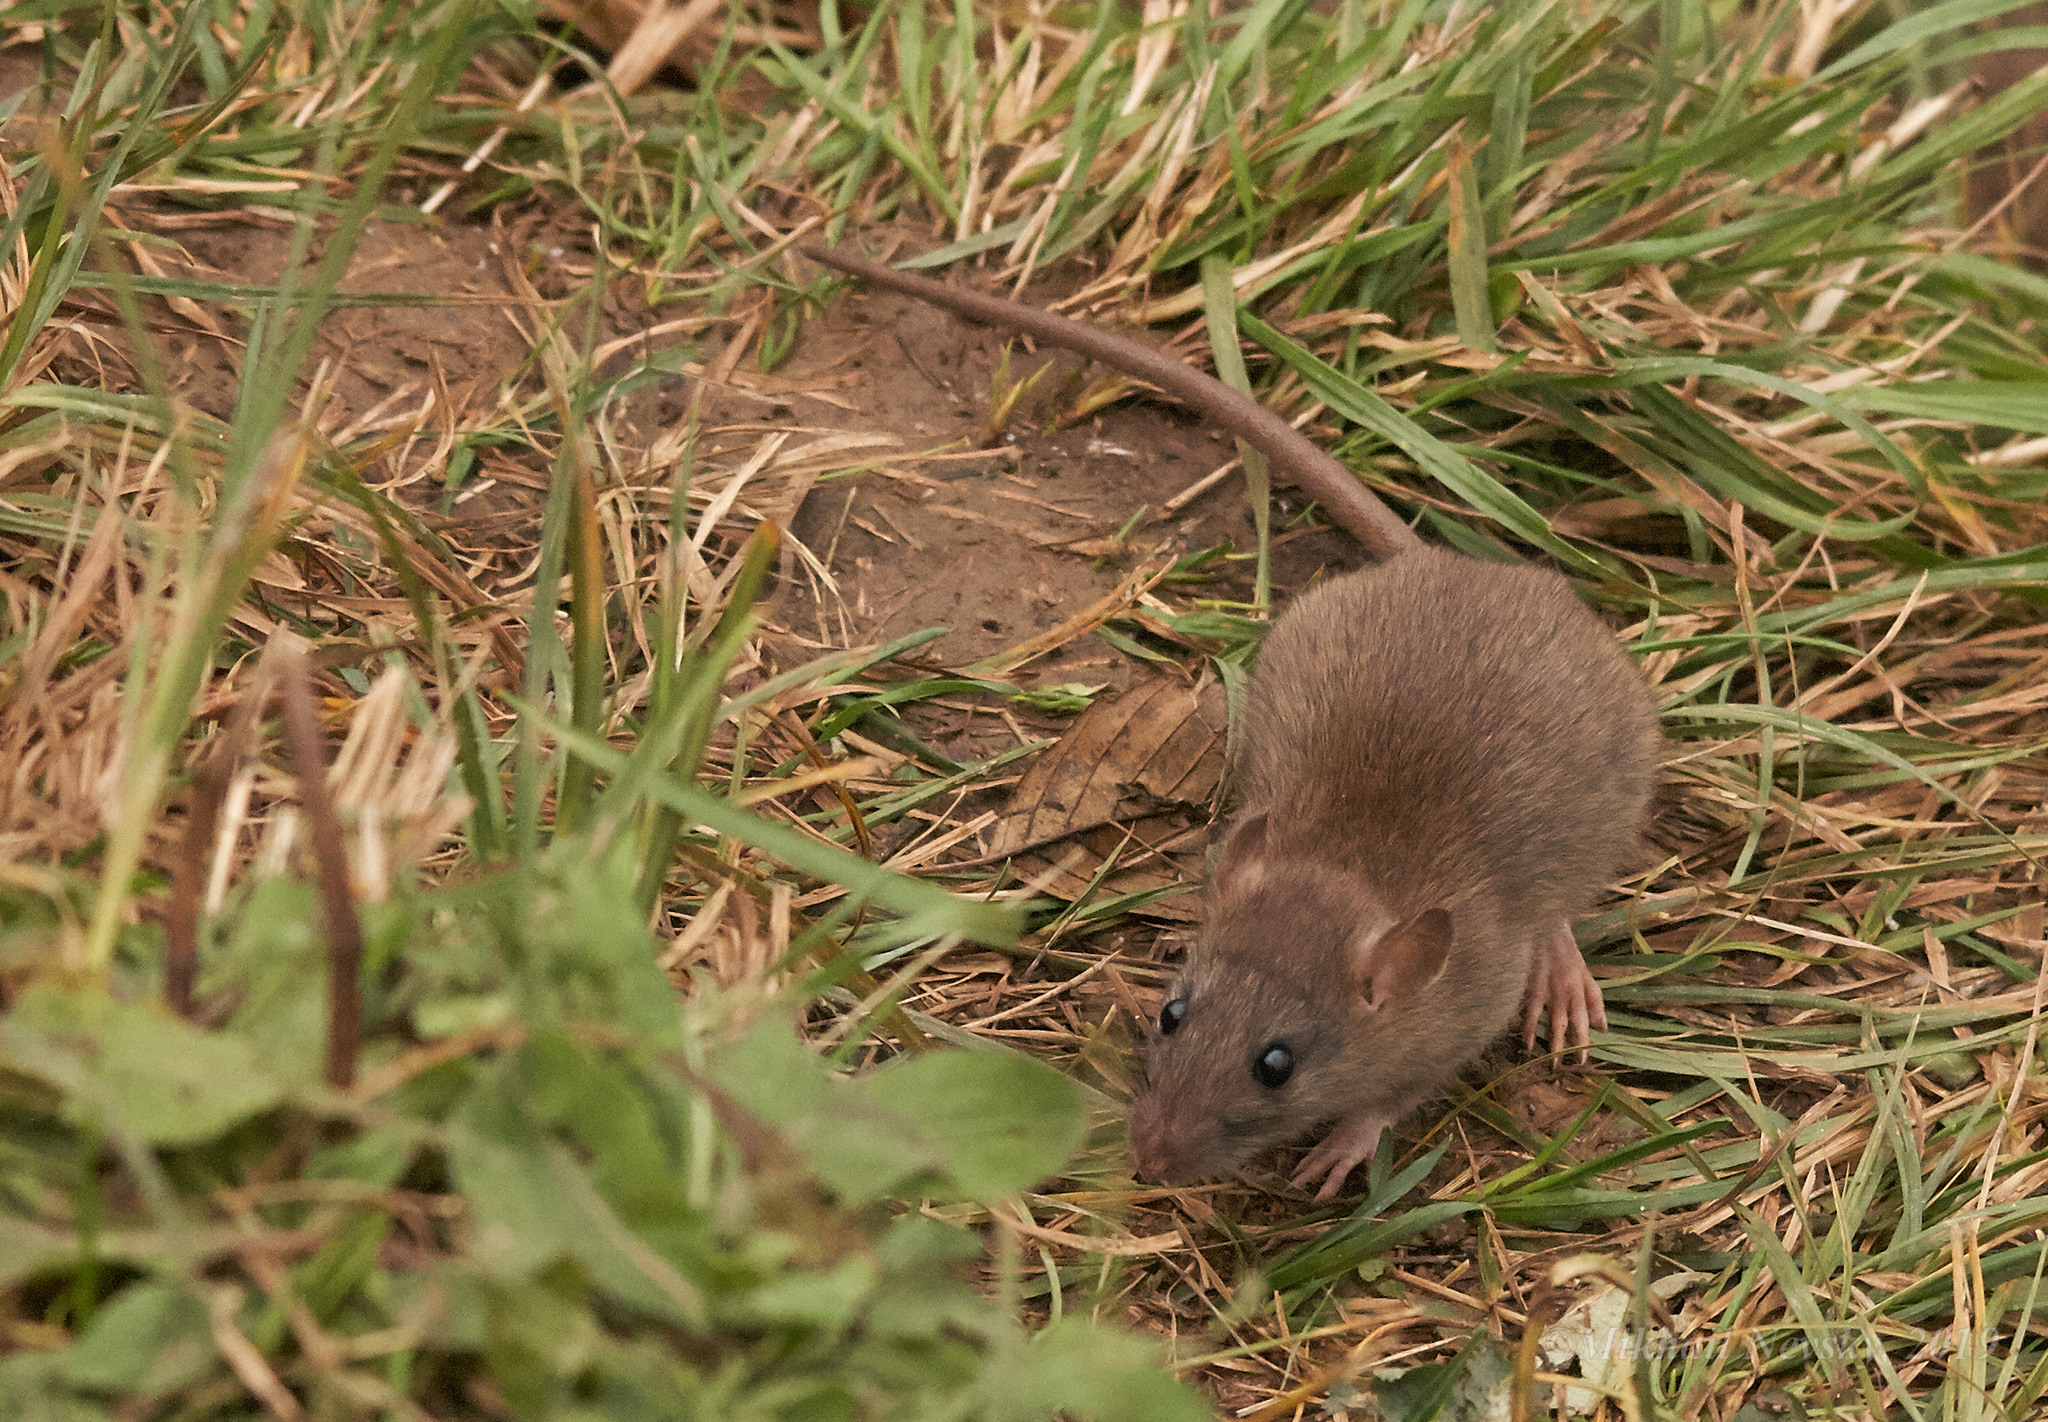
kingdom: Animalia
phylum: Chordata
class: Mammalia
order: Rodentia
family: Muridae
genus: Rattus
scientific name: Rattus norvegicus
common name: Brown rat
